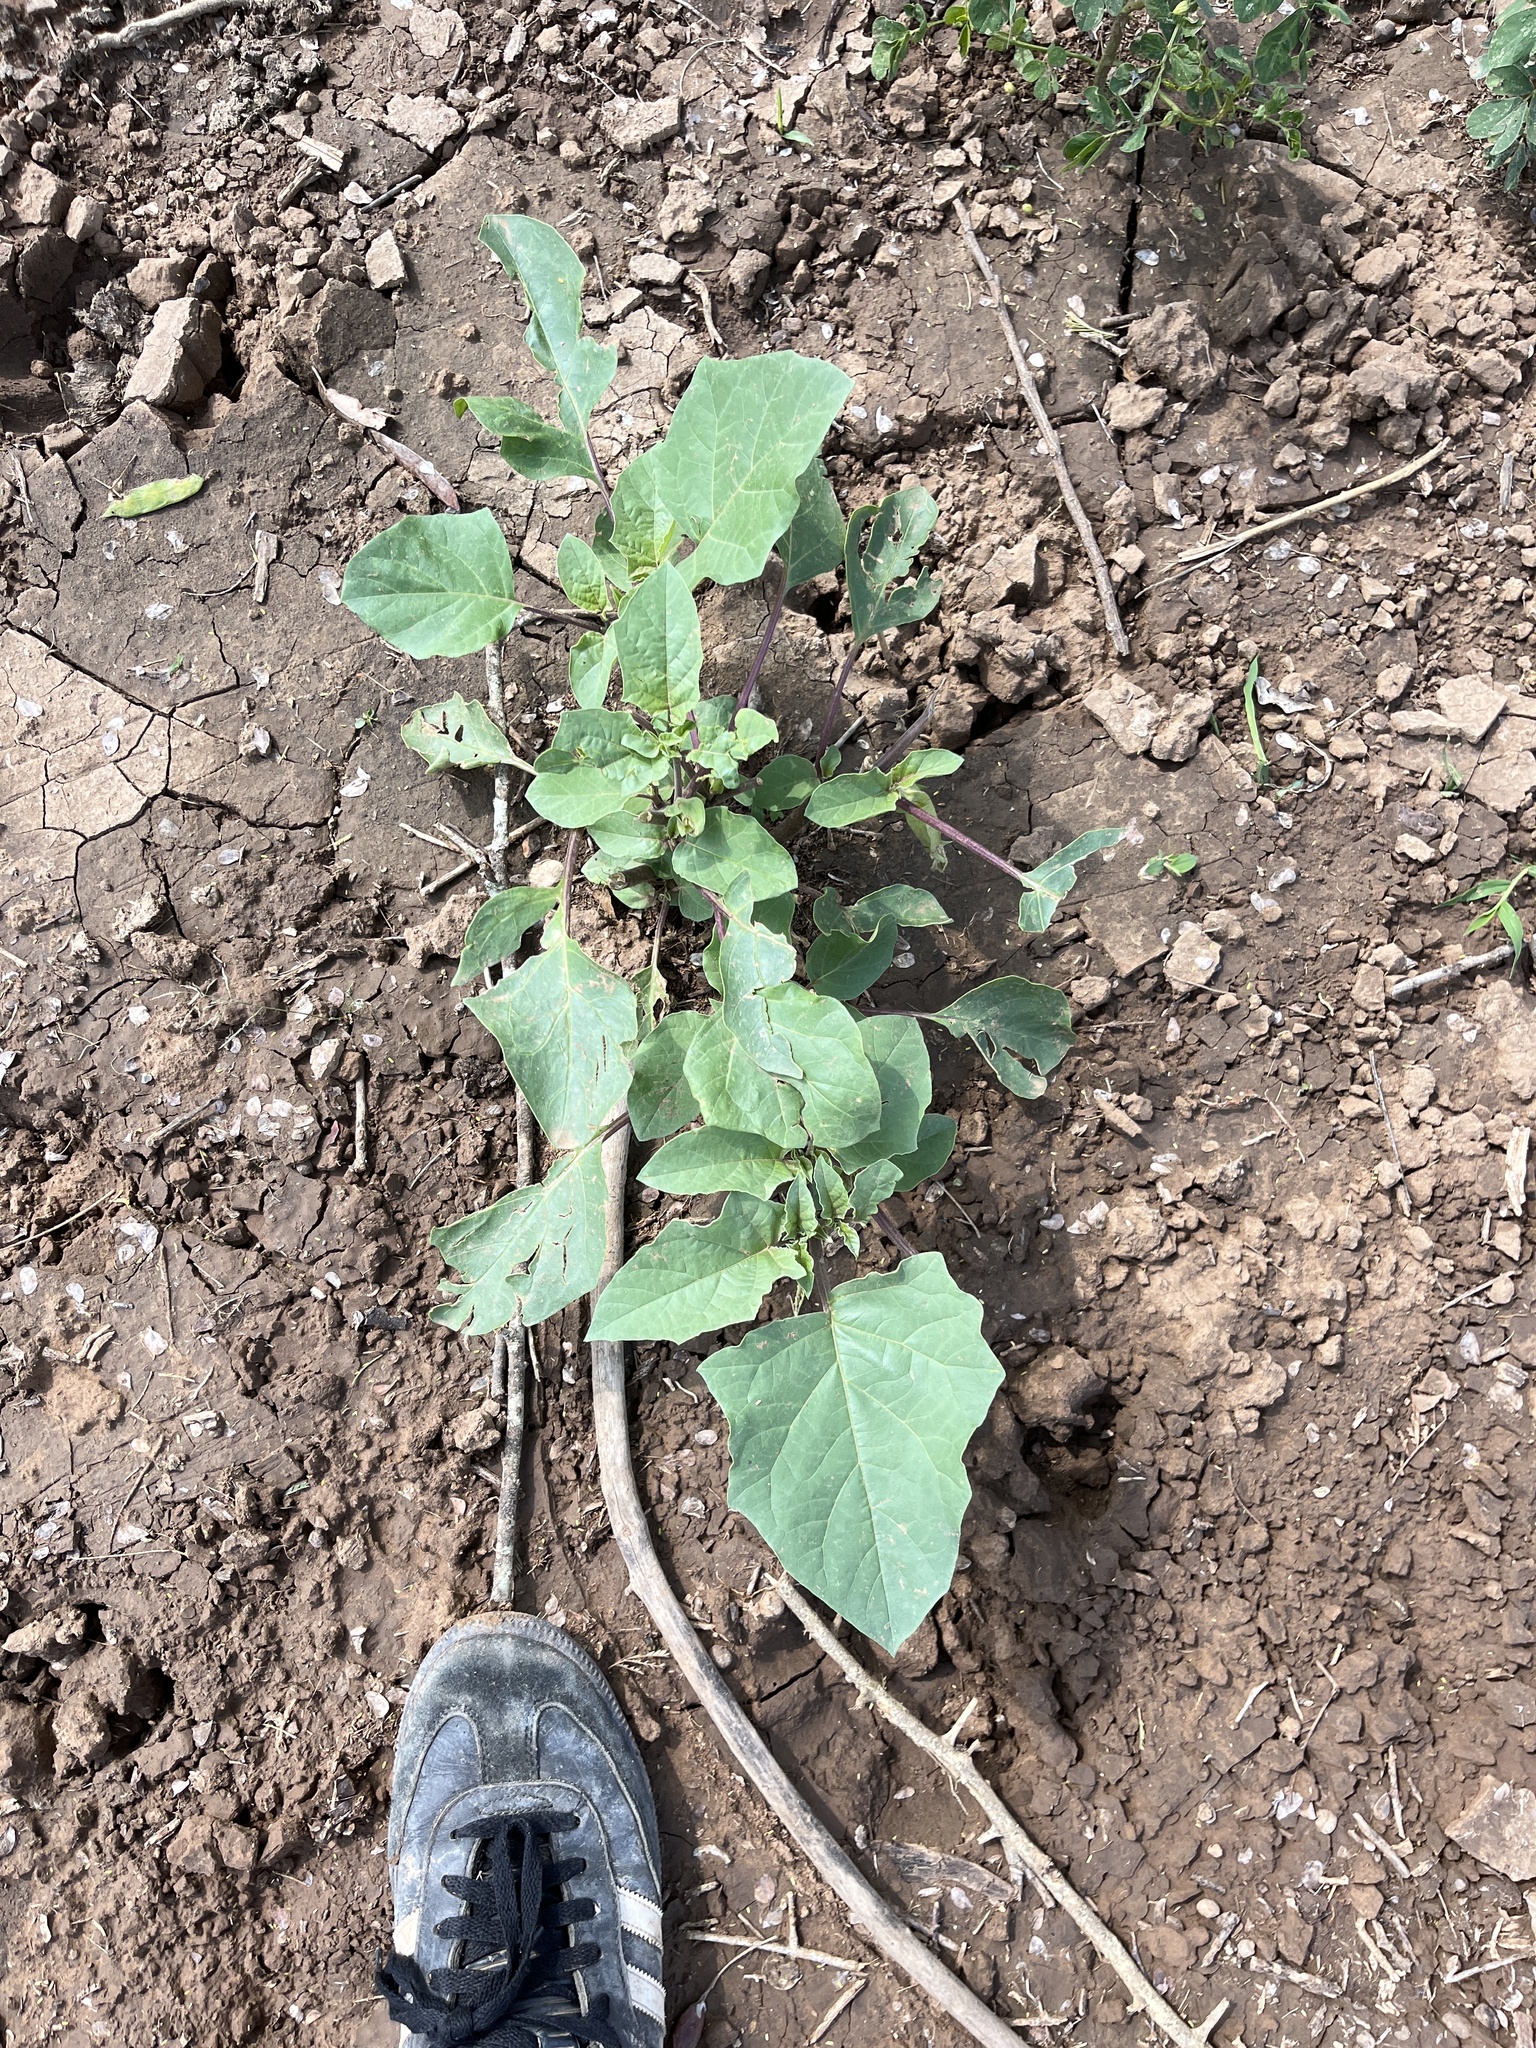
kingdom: Plantae
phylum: Tracheophyta
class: Magnoliopsida
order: Asterales
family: Asteraceae
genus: Xanthium
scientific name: Xanthium strumarium
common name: Rough cocklebur
